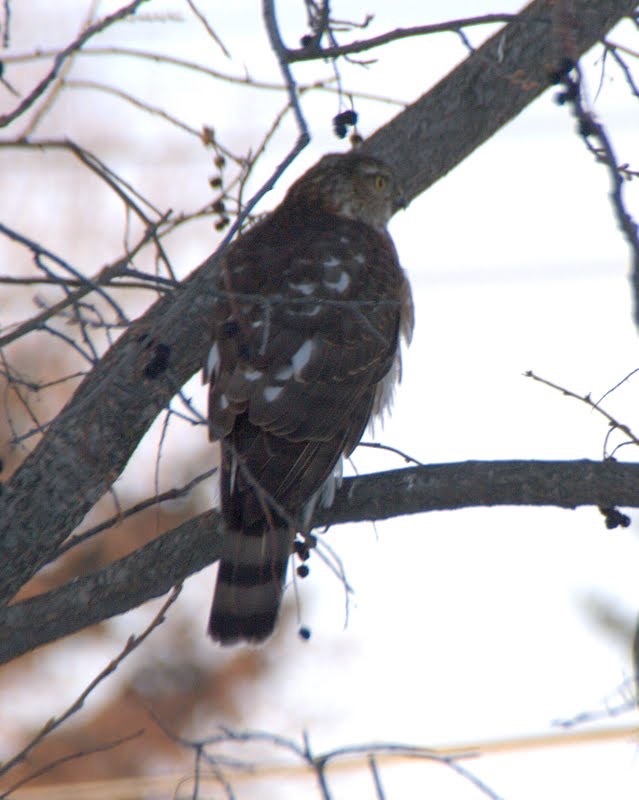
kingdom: Animalia
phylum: Chordata
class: Aves
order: Accipitriformes
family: Accipitridae
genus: Accipiter
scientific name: Accipiter striatus
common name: Sharp-shinned hawk
